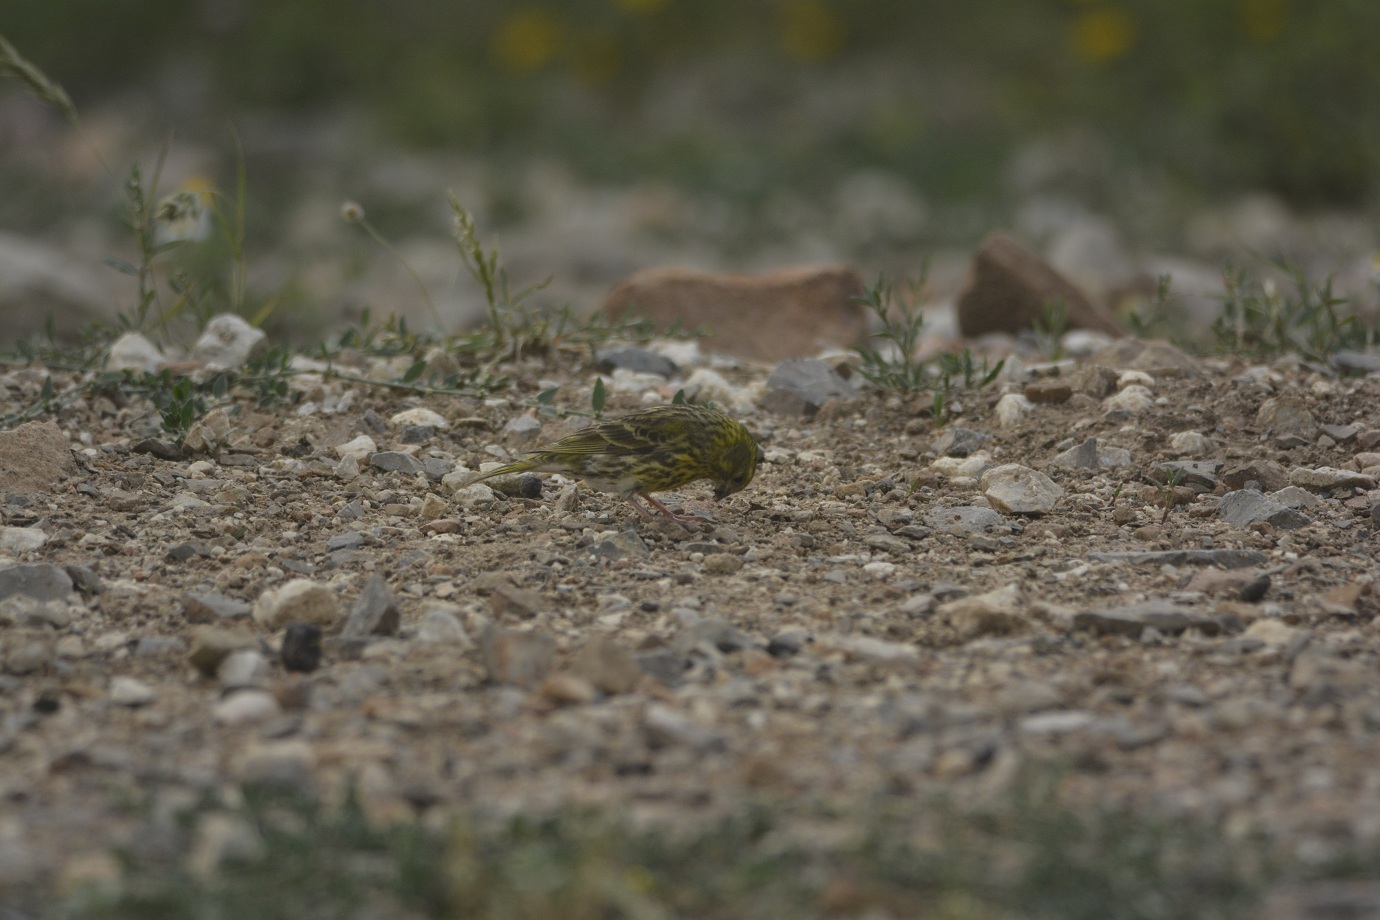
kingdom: Animalia
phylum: Chordata
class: Aves
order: Passeriformes
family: Fringillidae
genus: Serinus
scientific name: Serinus serinus
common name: European serin
